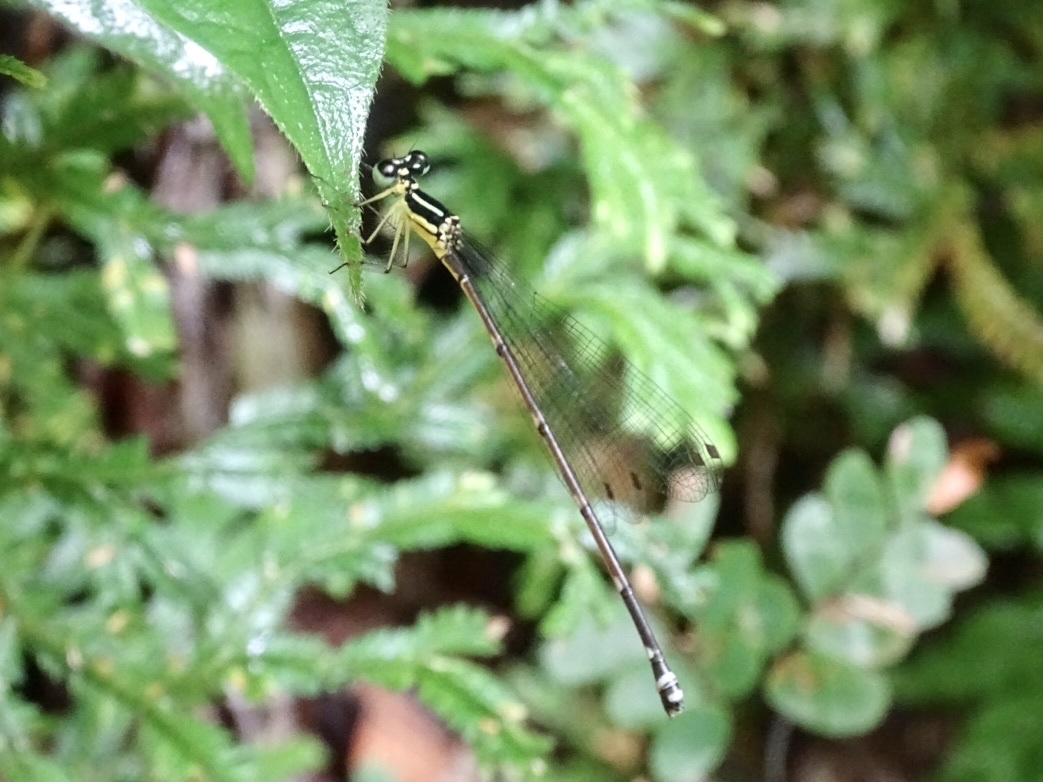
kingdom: Animalia
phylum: Arthropoda
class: Insecta
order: Odonata
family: Platycnemididae
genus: Coeliccia
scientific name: Coeliccia cyanomelas
